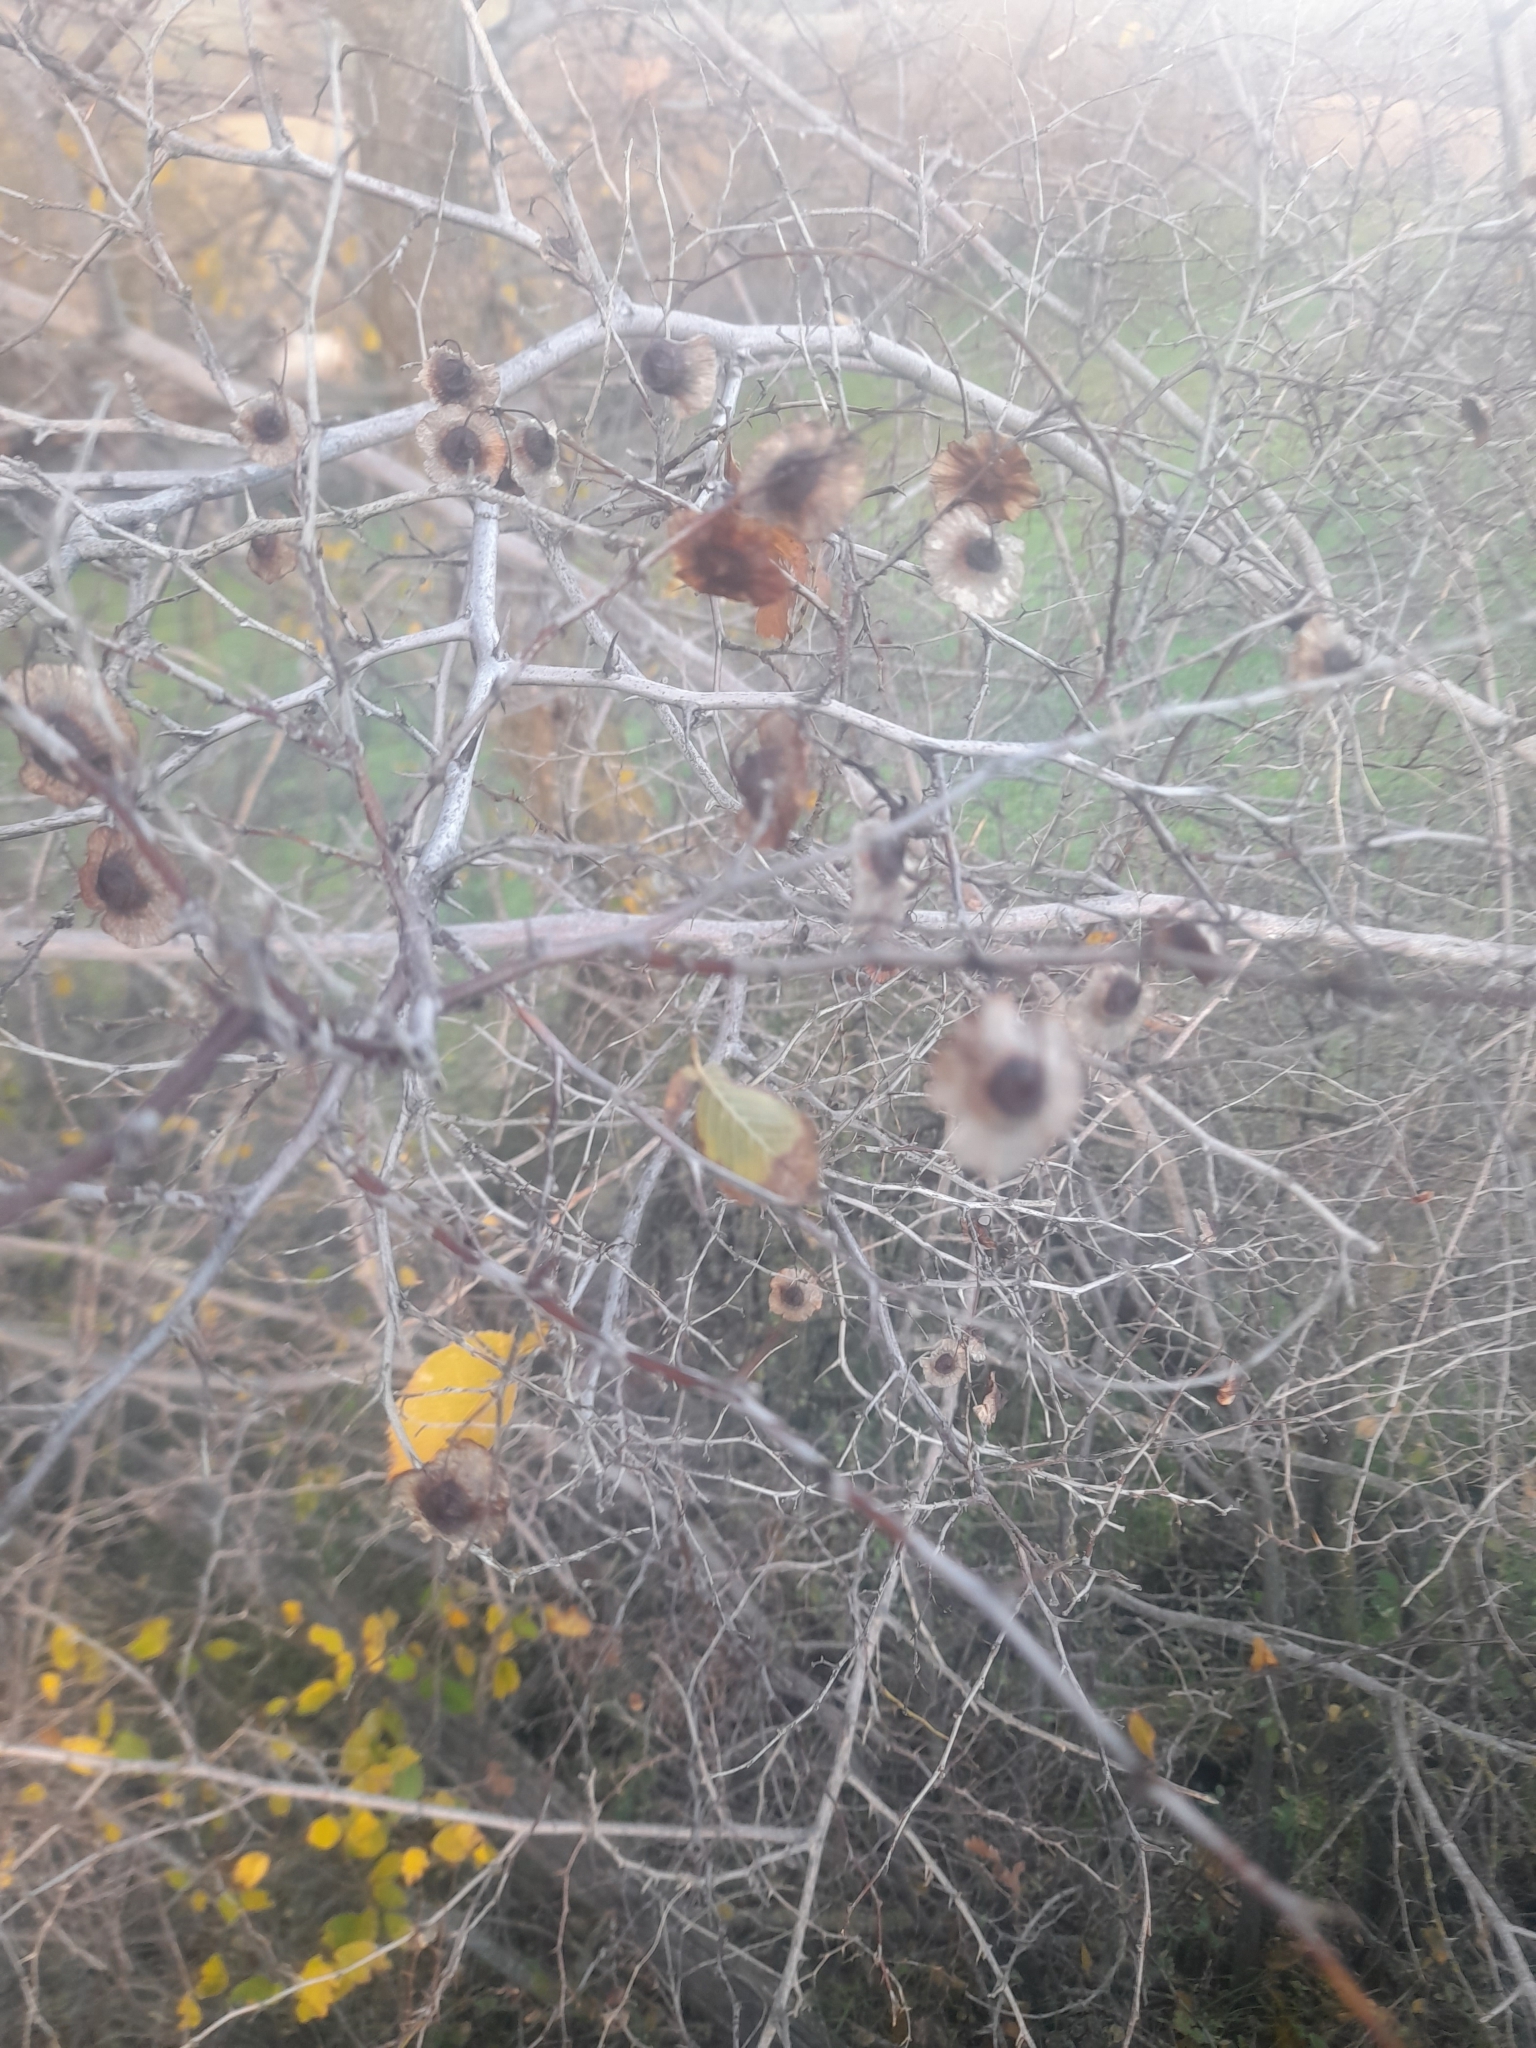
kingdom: Plantae
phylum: Tracheophyta
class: Magnoliopsida
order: Rosales
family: Rhamnaceae
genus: Paliurus
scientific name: Paliurus spina-christi
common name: Jeruselem thorn
